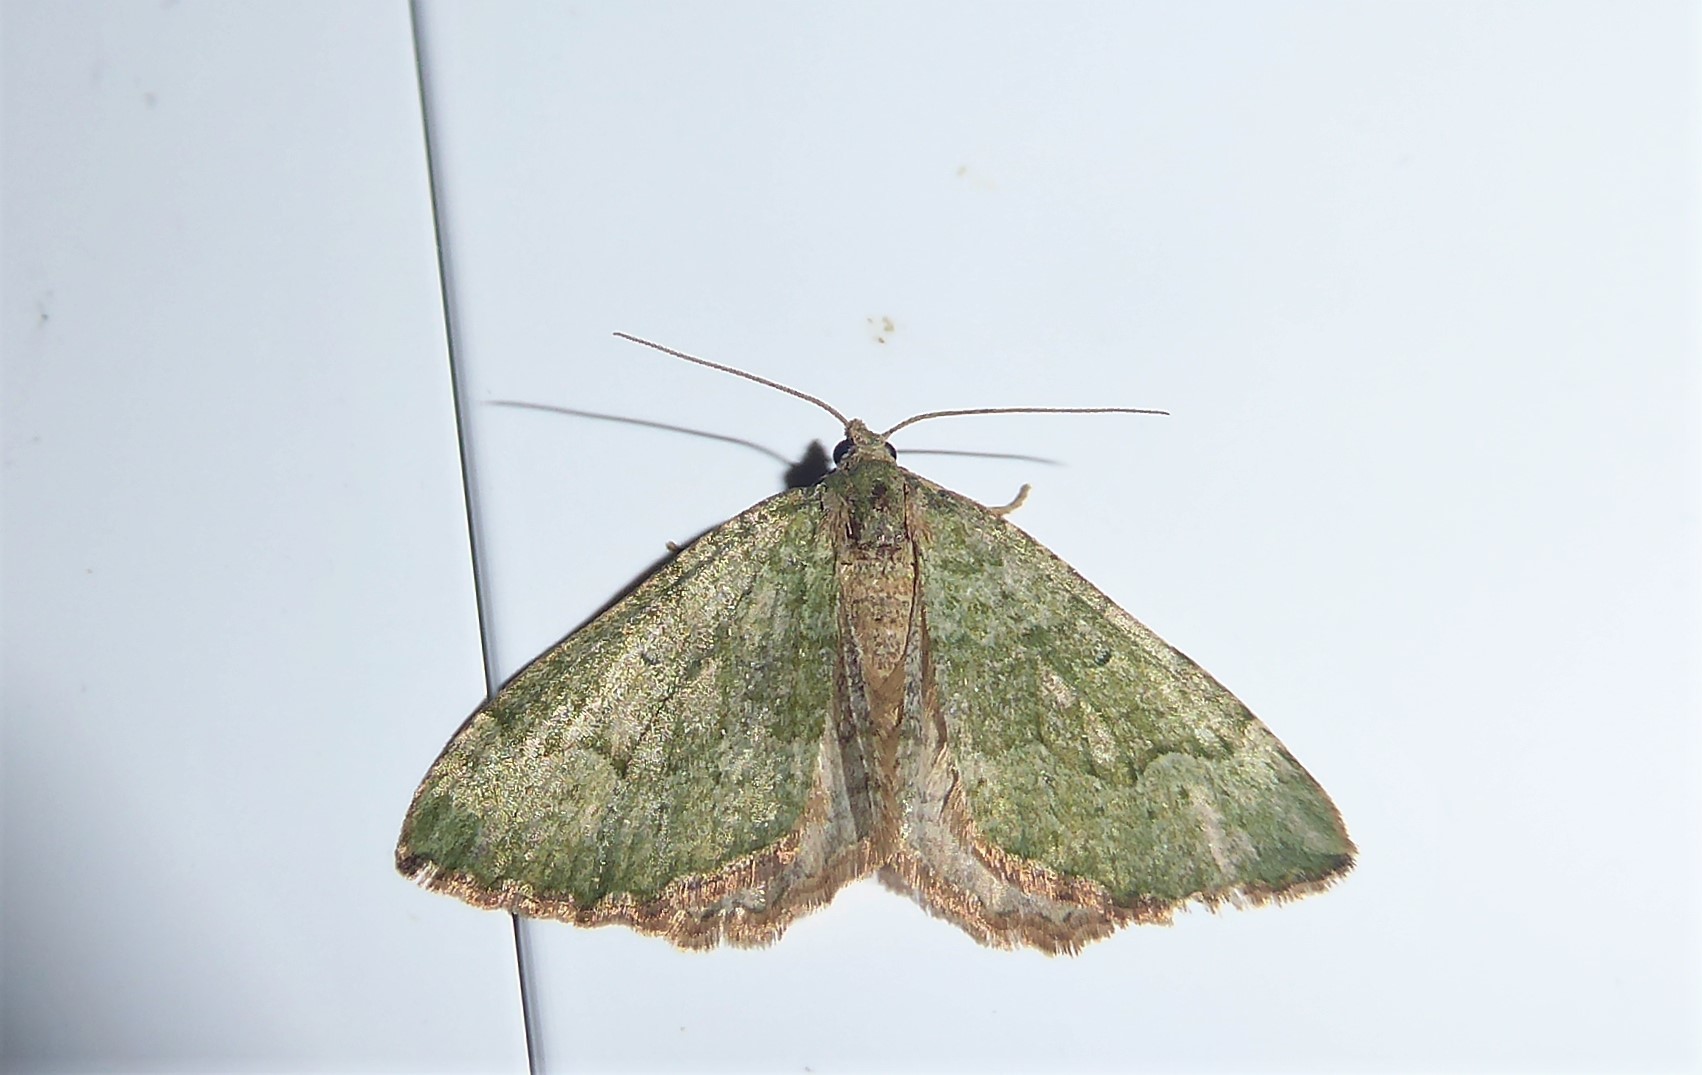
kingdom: Animalia
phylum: Arthropoda
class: Insecta
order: Lepidoptera
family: Geometridae
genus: Epyaxa
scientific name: Epyaxa rosearia
